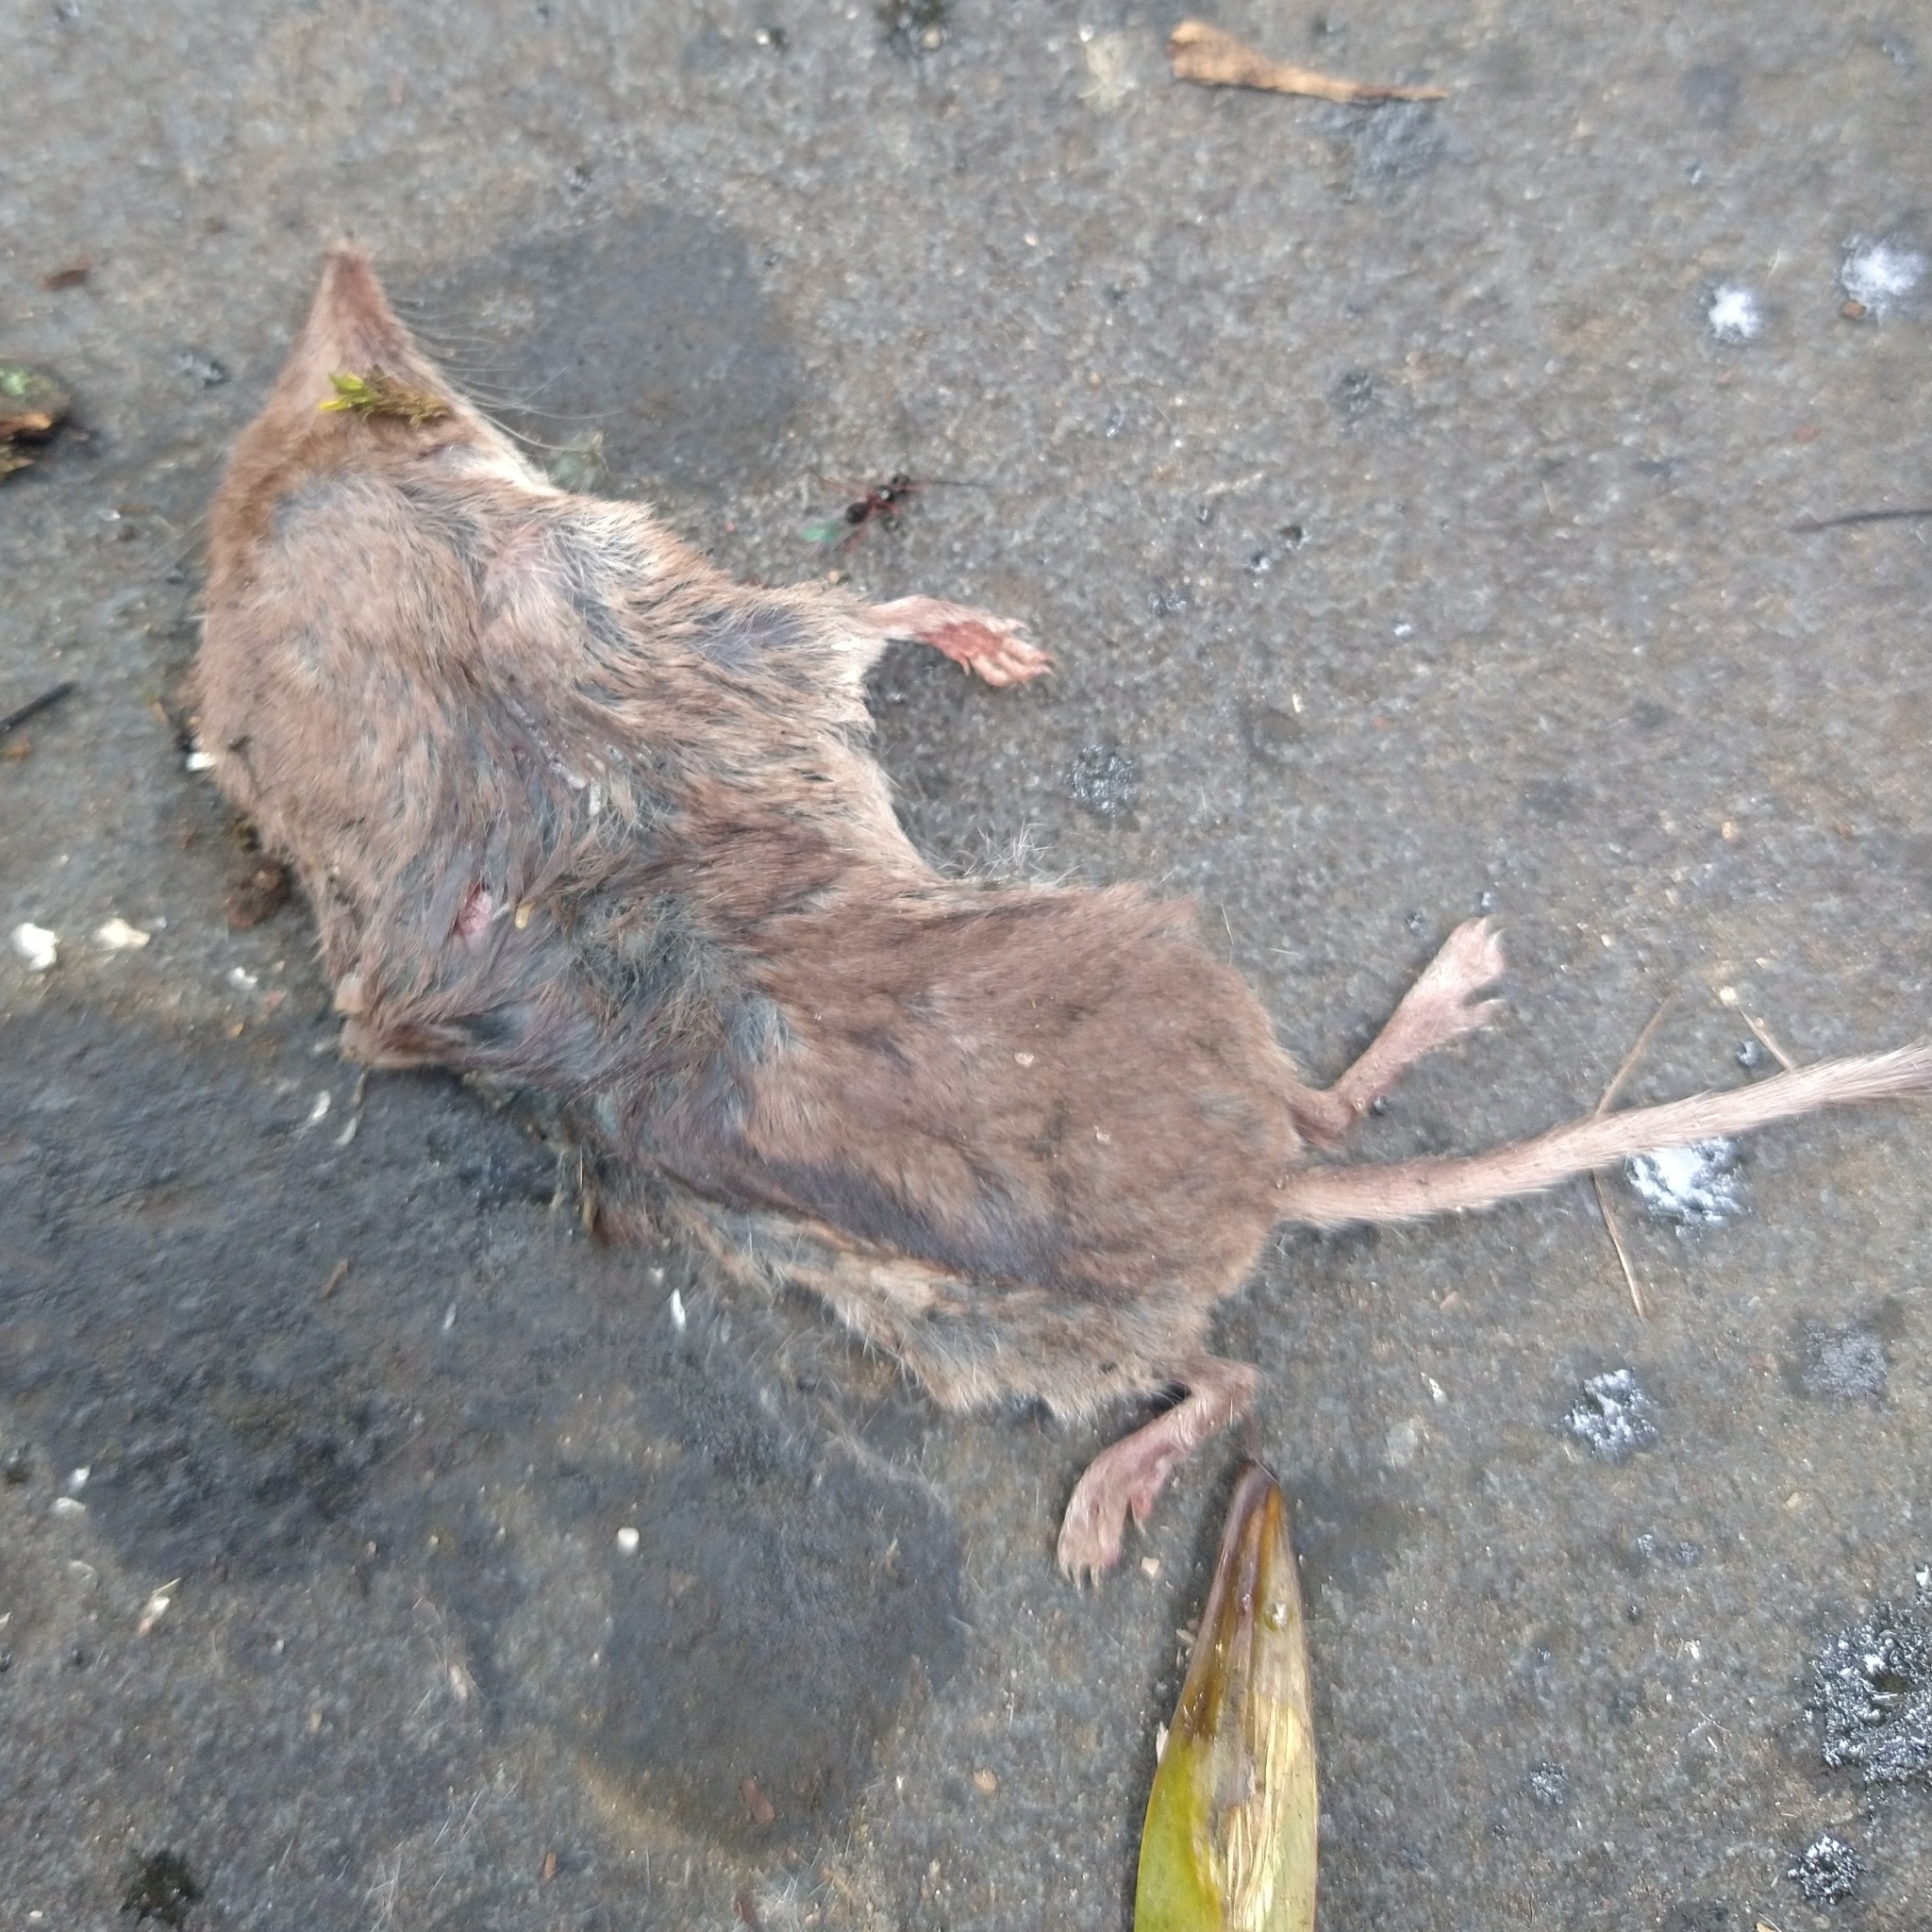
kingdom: Animalia
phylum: Chordata
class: Mammalia
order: Soricomorpha
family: Soricidae
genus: Sorex
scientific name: Sorex araneus
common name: Common shrew
